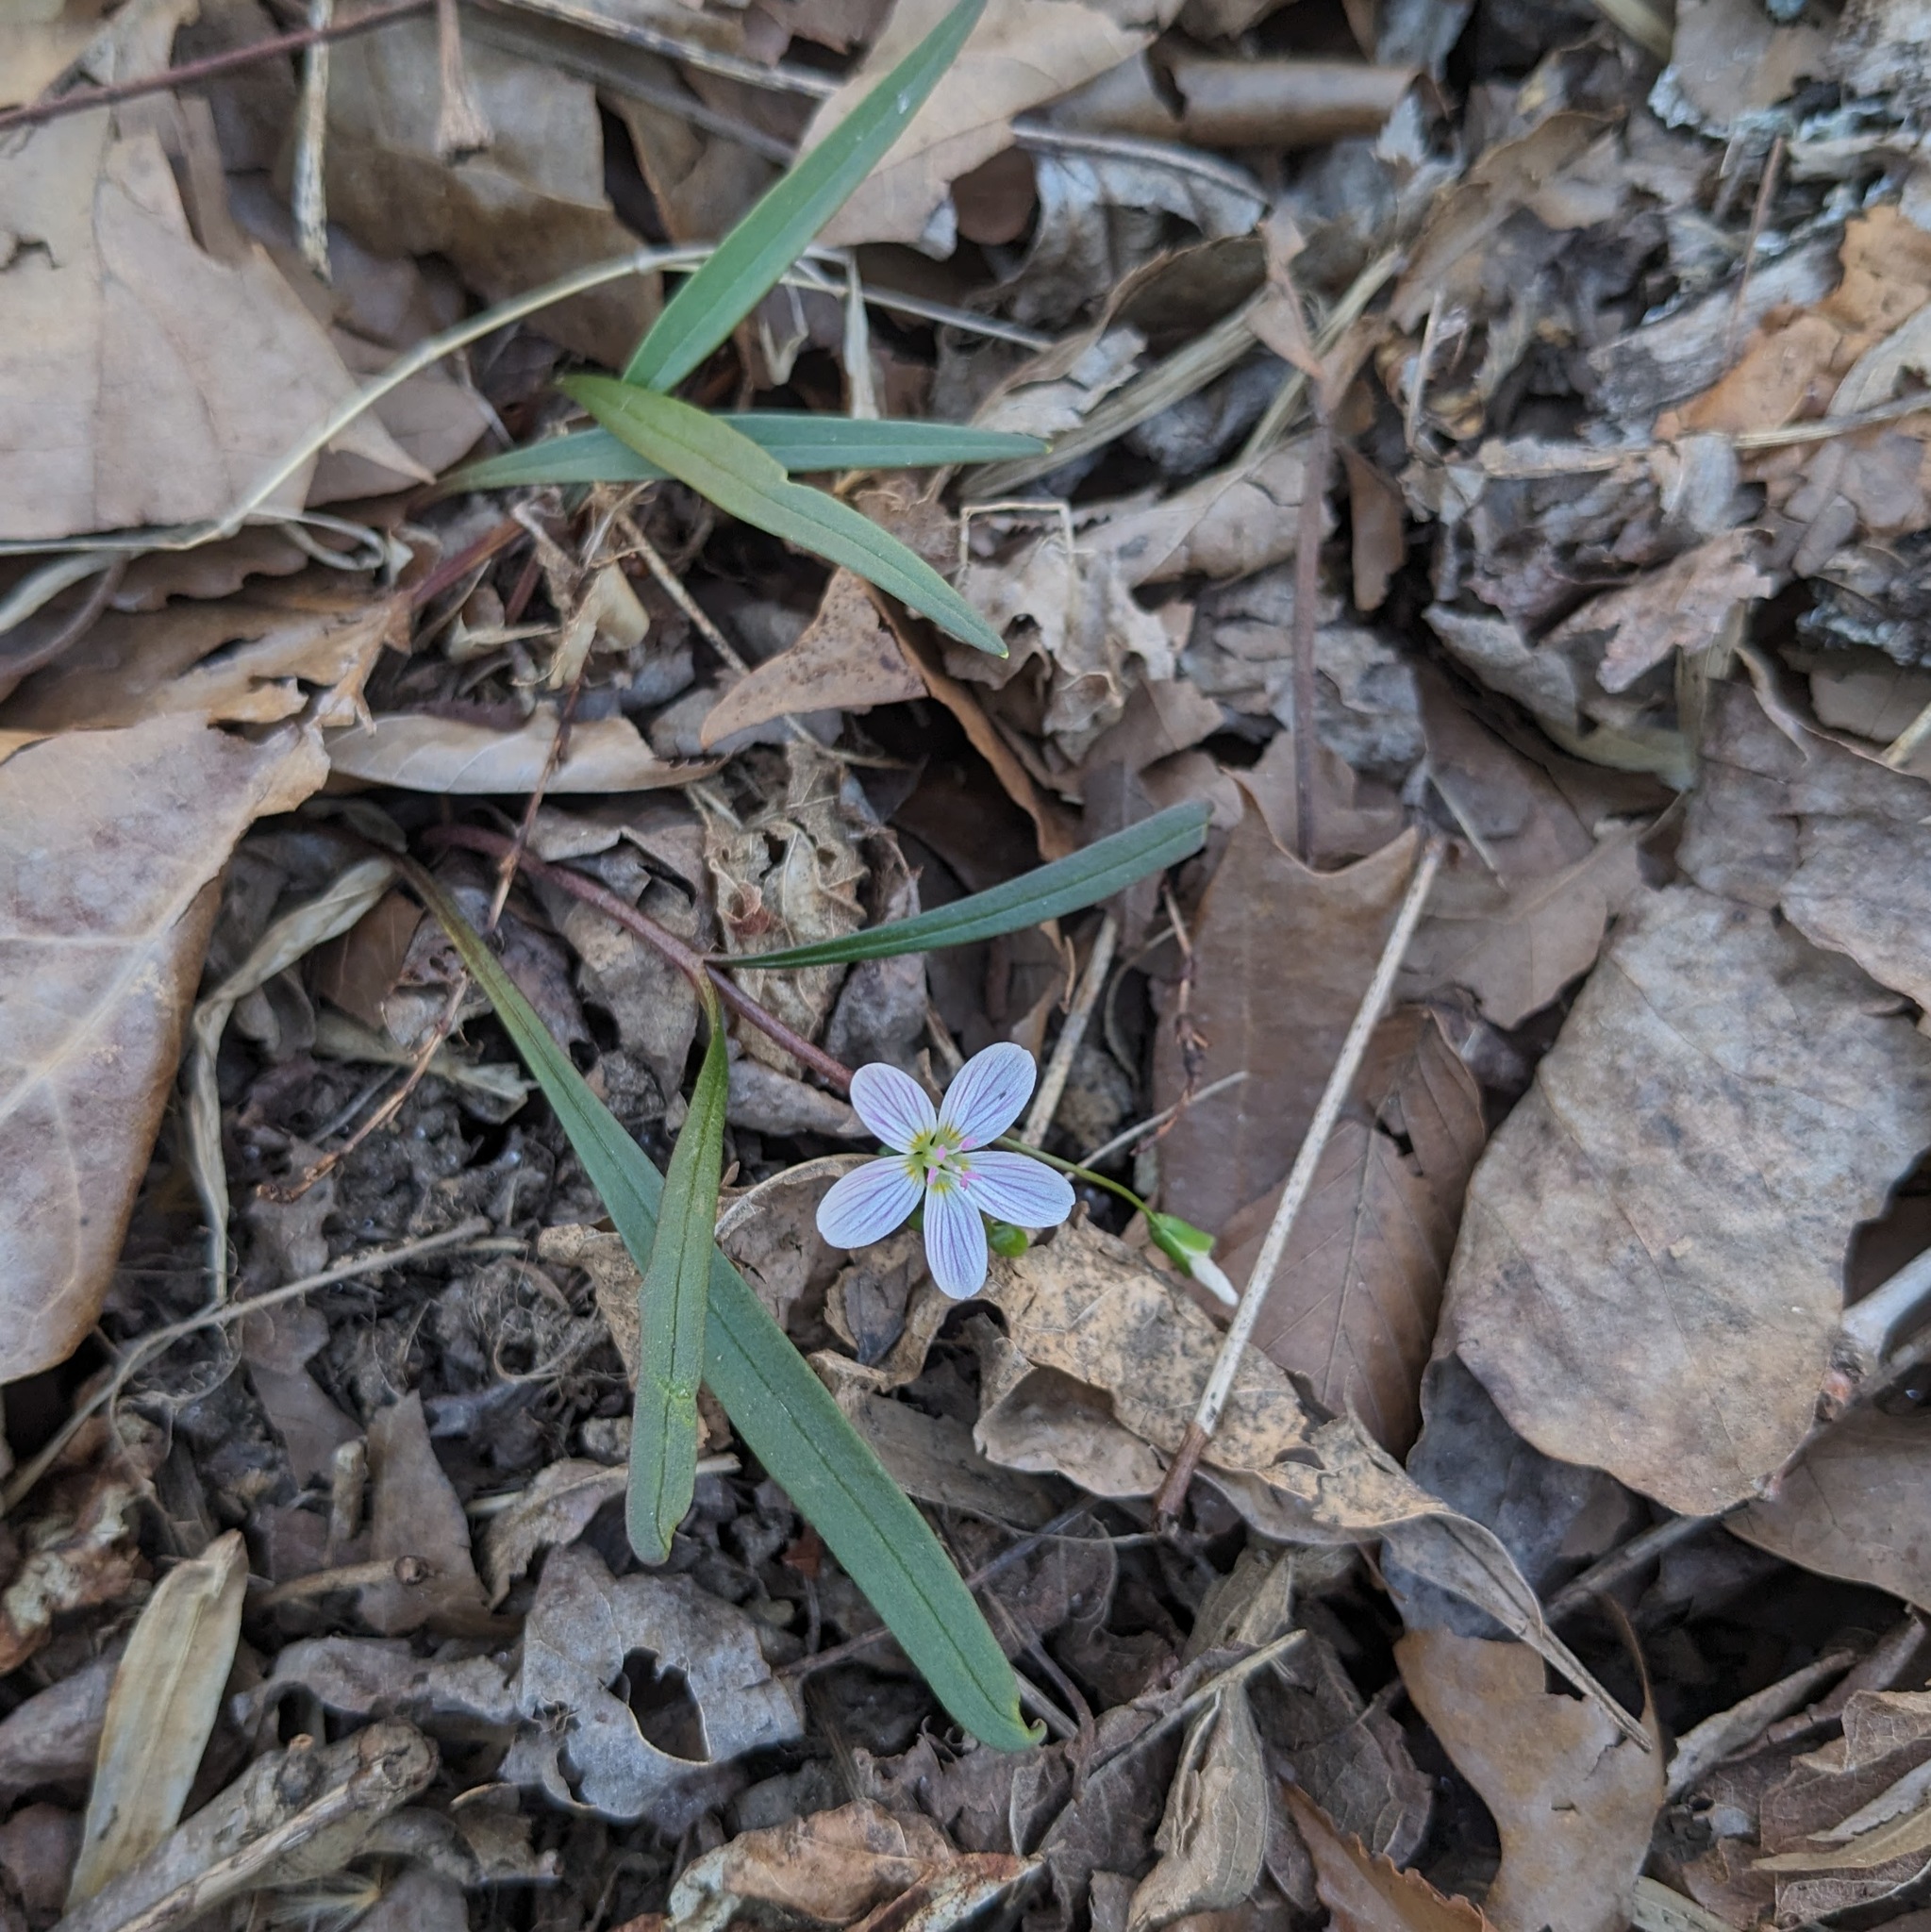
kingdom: Plantae
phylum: Tracheophyta
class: Magnoliopsida
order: Caryophyllales
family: Montiaceae
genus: Claytonia
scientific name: Claytonia virginica
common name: Virginia springbeauty
